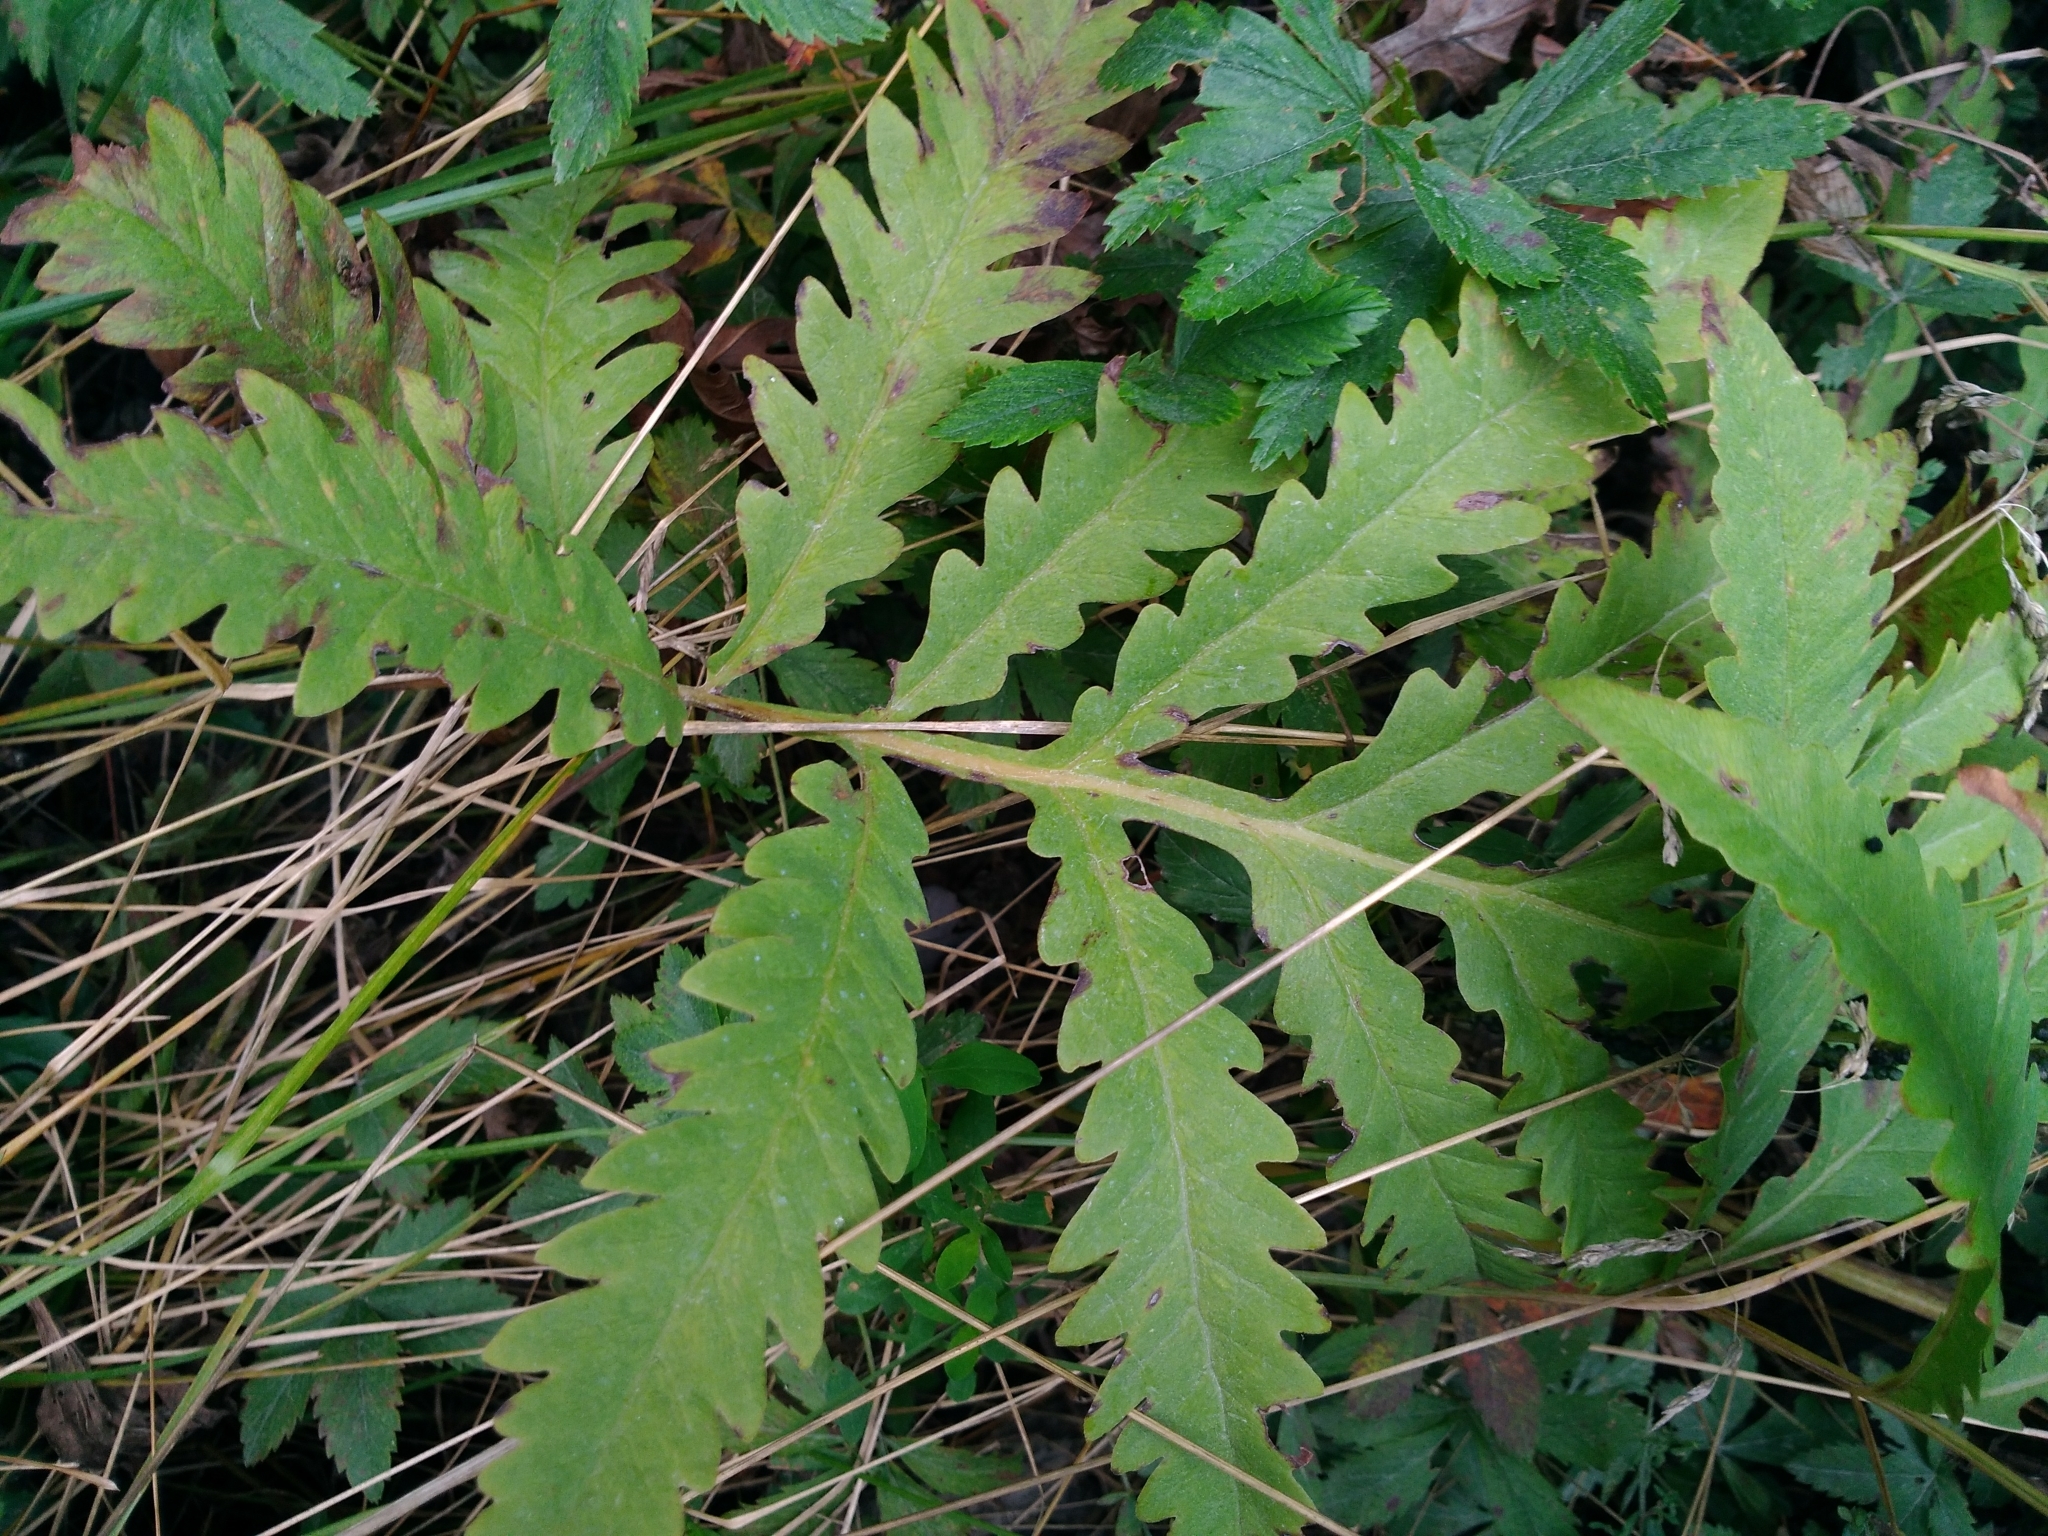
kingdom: Plantae
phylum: Tracheophyta
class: Polypodiopsida
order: Polypodiales
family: Onocleaceae
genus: Onoclea
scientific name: Onoclea sensibilis
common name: Sensitive fern
